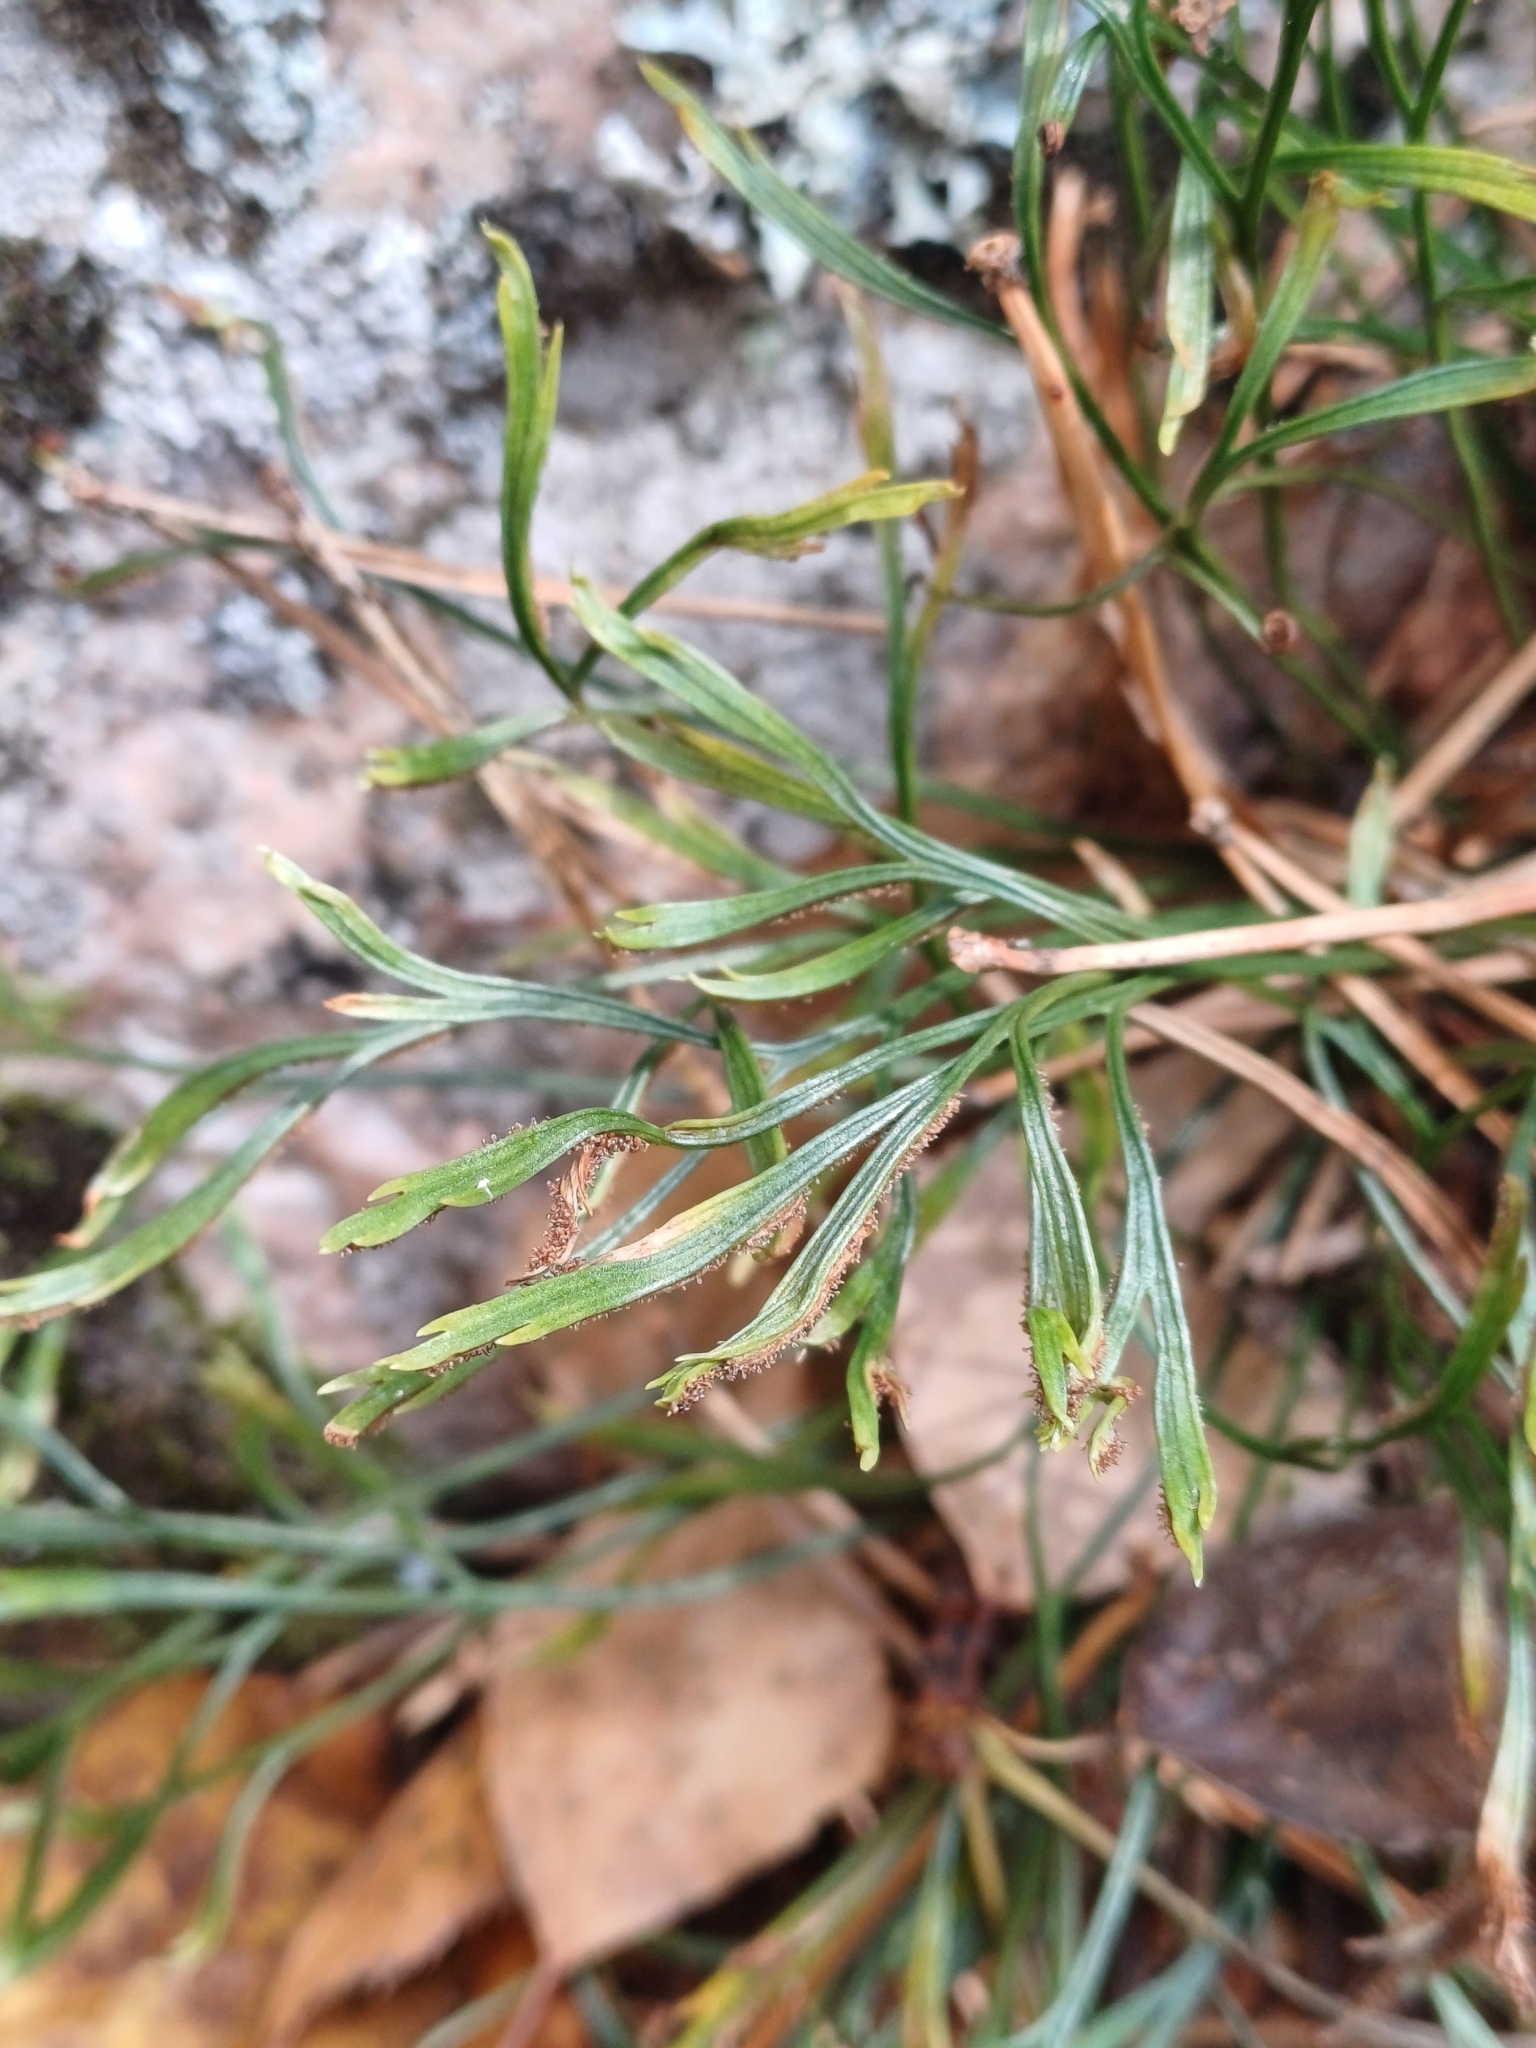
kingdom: Plantae
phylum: Tracheophyta
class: Polypodiopsida
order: Polypodiales
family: Aspleniaceae
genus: Asplenium
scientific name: Asplenium septentrionale
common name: Forked spleenwort
